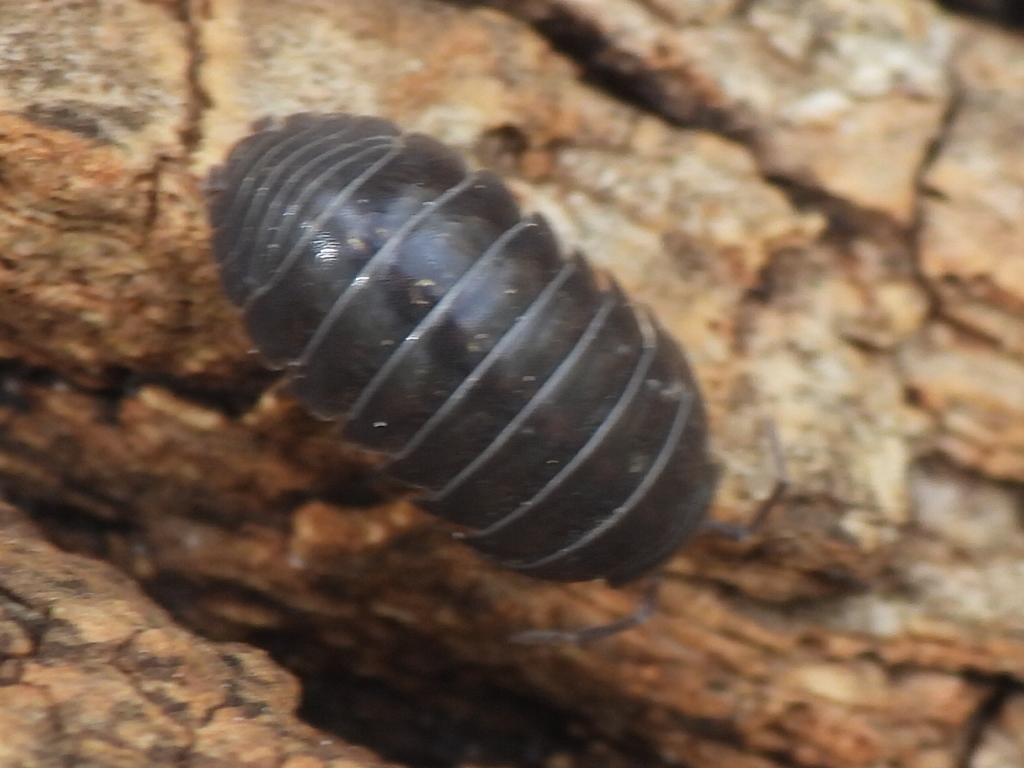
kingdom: Animalia
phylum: Arthropoda
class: Malacostraca
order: Isopoda
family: Armadillidiidae
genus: Armadillidium
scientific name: Armadillidium vulgare
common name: Common pill woodlouse
